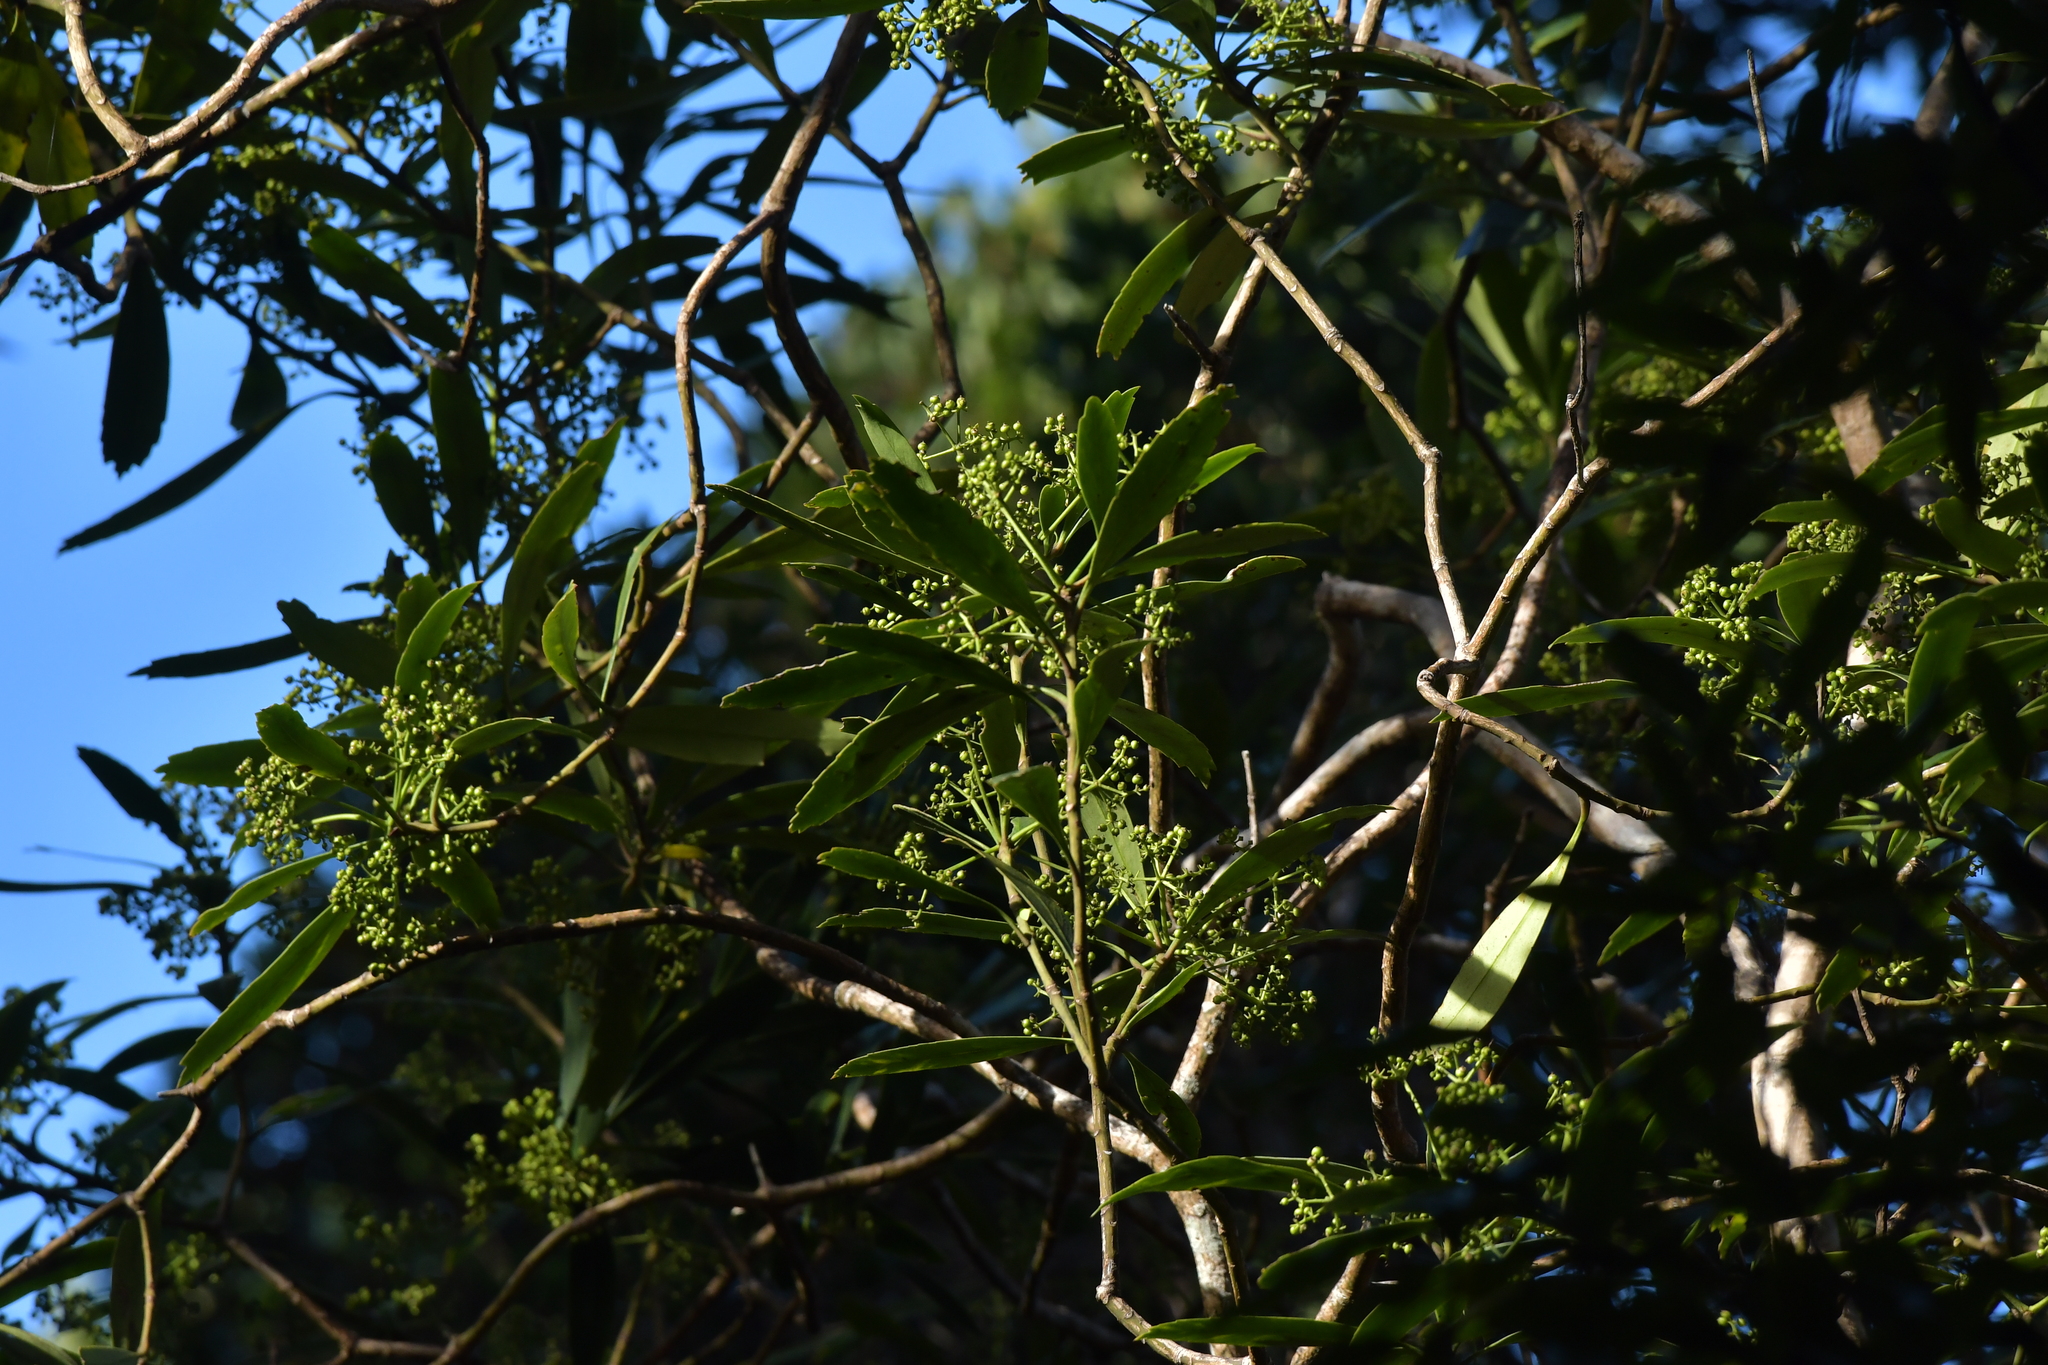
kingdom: Plantae
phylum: Tracheophyta
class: Magnoliopsida
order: Apiales
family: Araliaceae
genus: Pseudopanax
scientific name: Pseudopanax crassifolius
